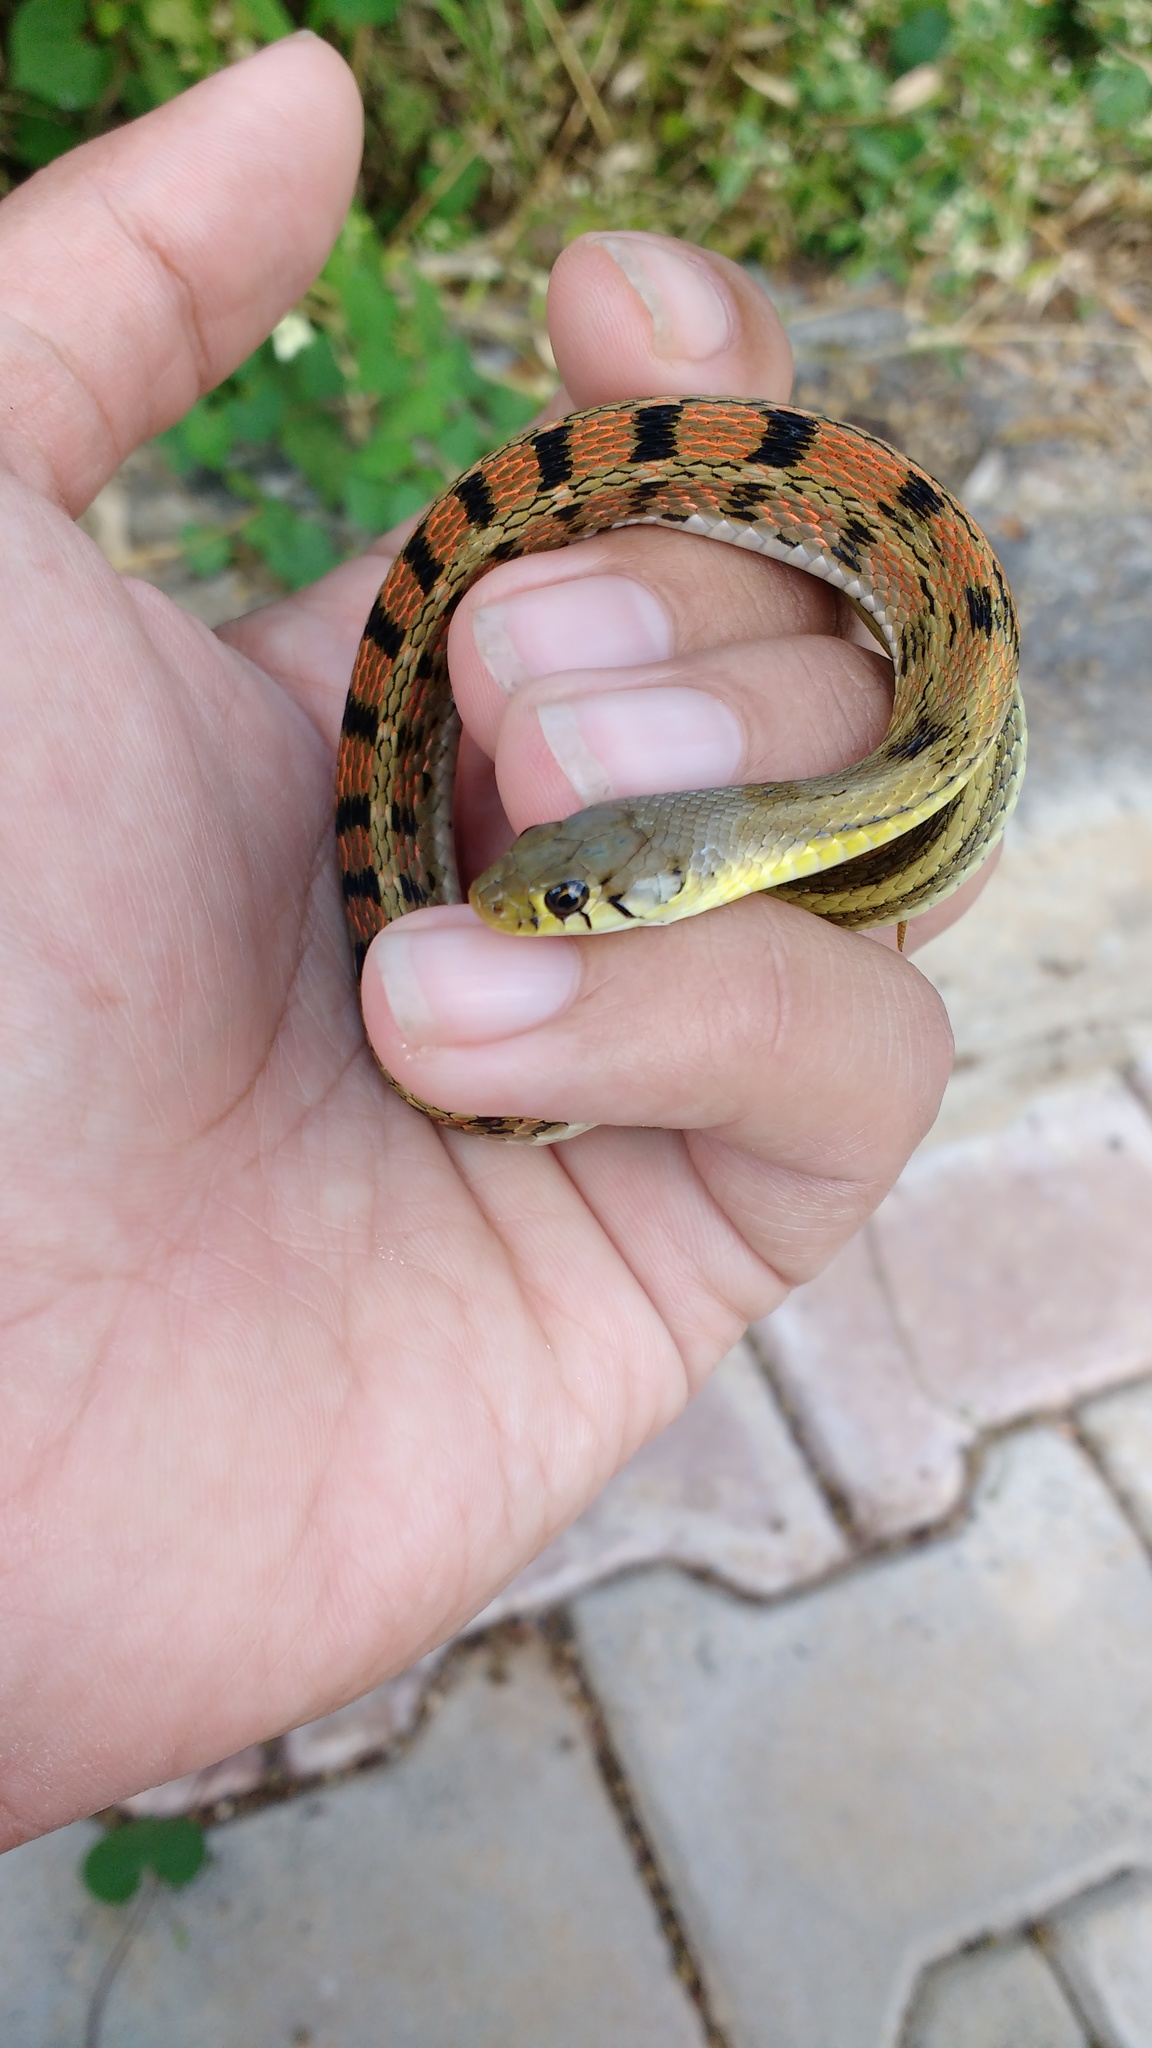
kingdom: Animalia
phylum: Chordata
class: Squamata
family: Colubridae
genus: Amphiesma
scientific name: Amphiesma stolatum
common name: Buff striped keelback
